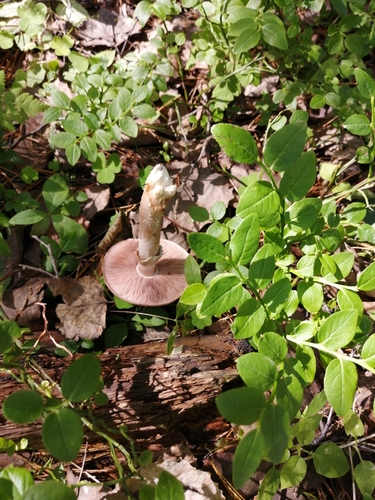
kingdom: Fungi
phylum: Basidiomycota
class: Agaricomycetes
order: Agaricales
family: Agaricaceae
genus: Agaricus
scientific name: Agaricus campestris
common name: Field mushroom
